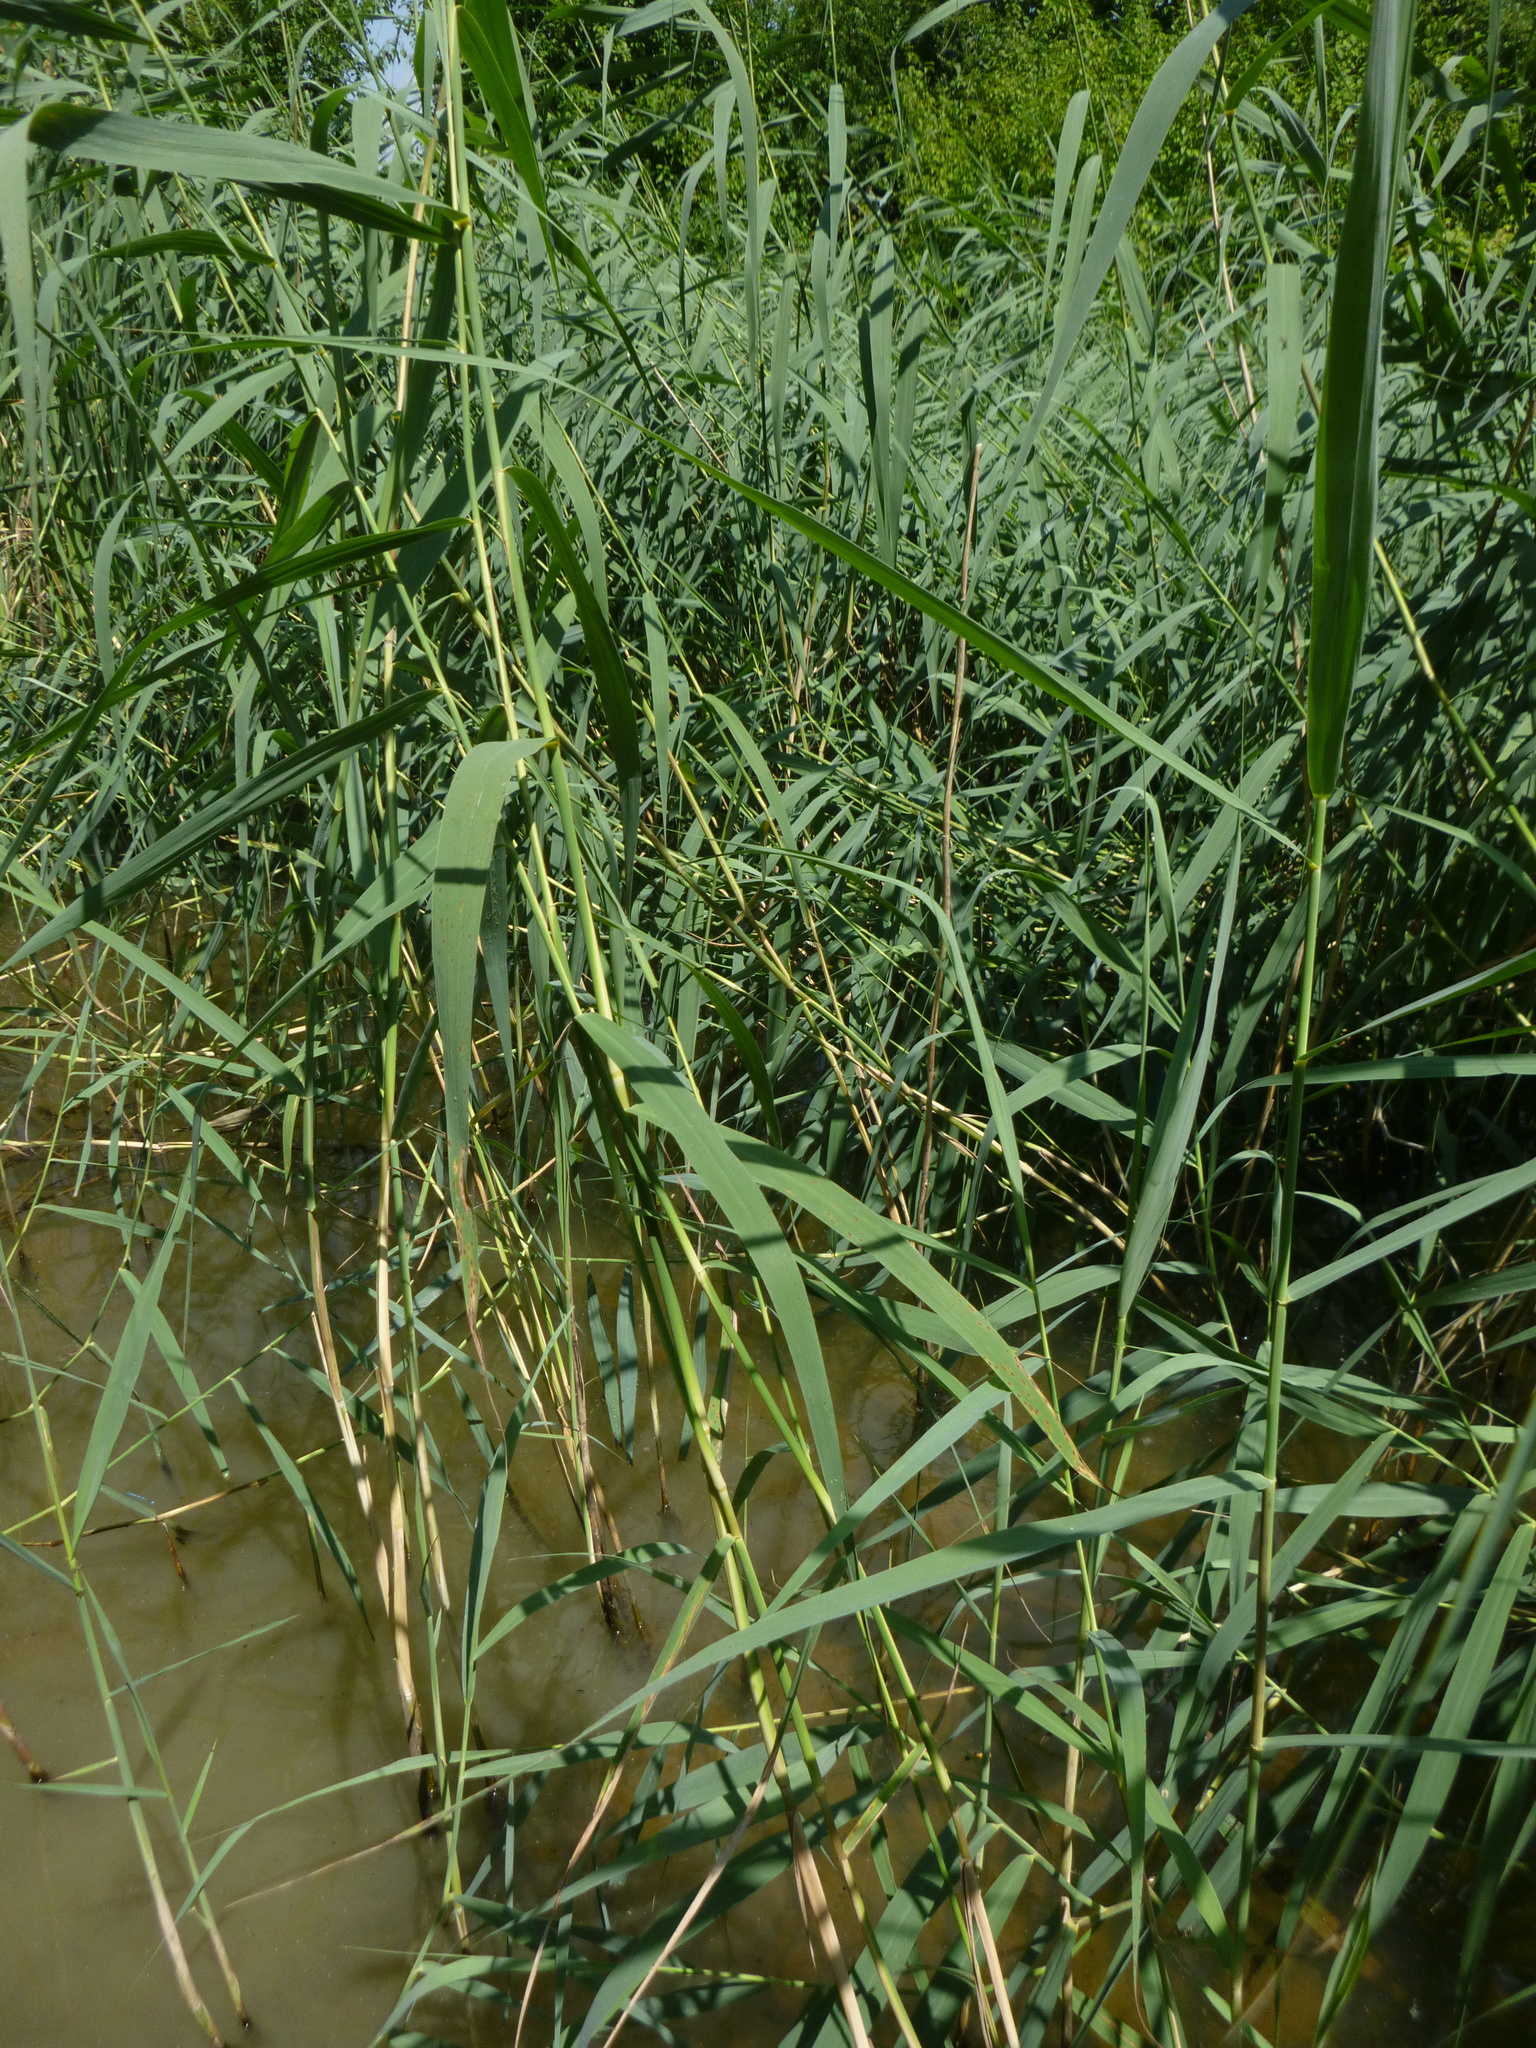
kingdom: Plantae
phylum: Tracheophyta
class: Liliopsida
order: Poales
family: Poaceae
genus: Phragmites
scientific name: Phragmites australis
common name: Common reed
